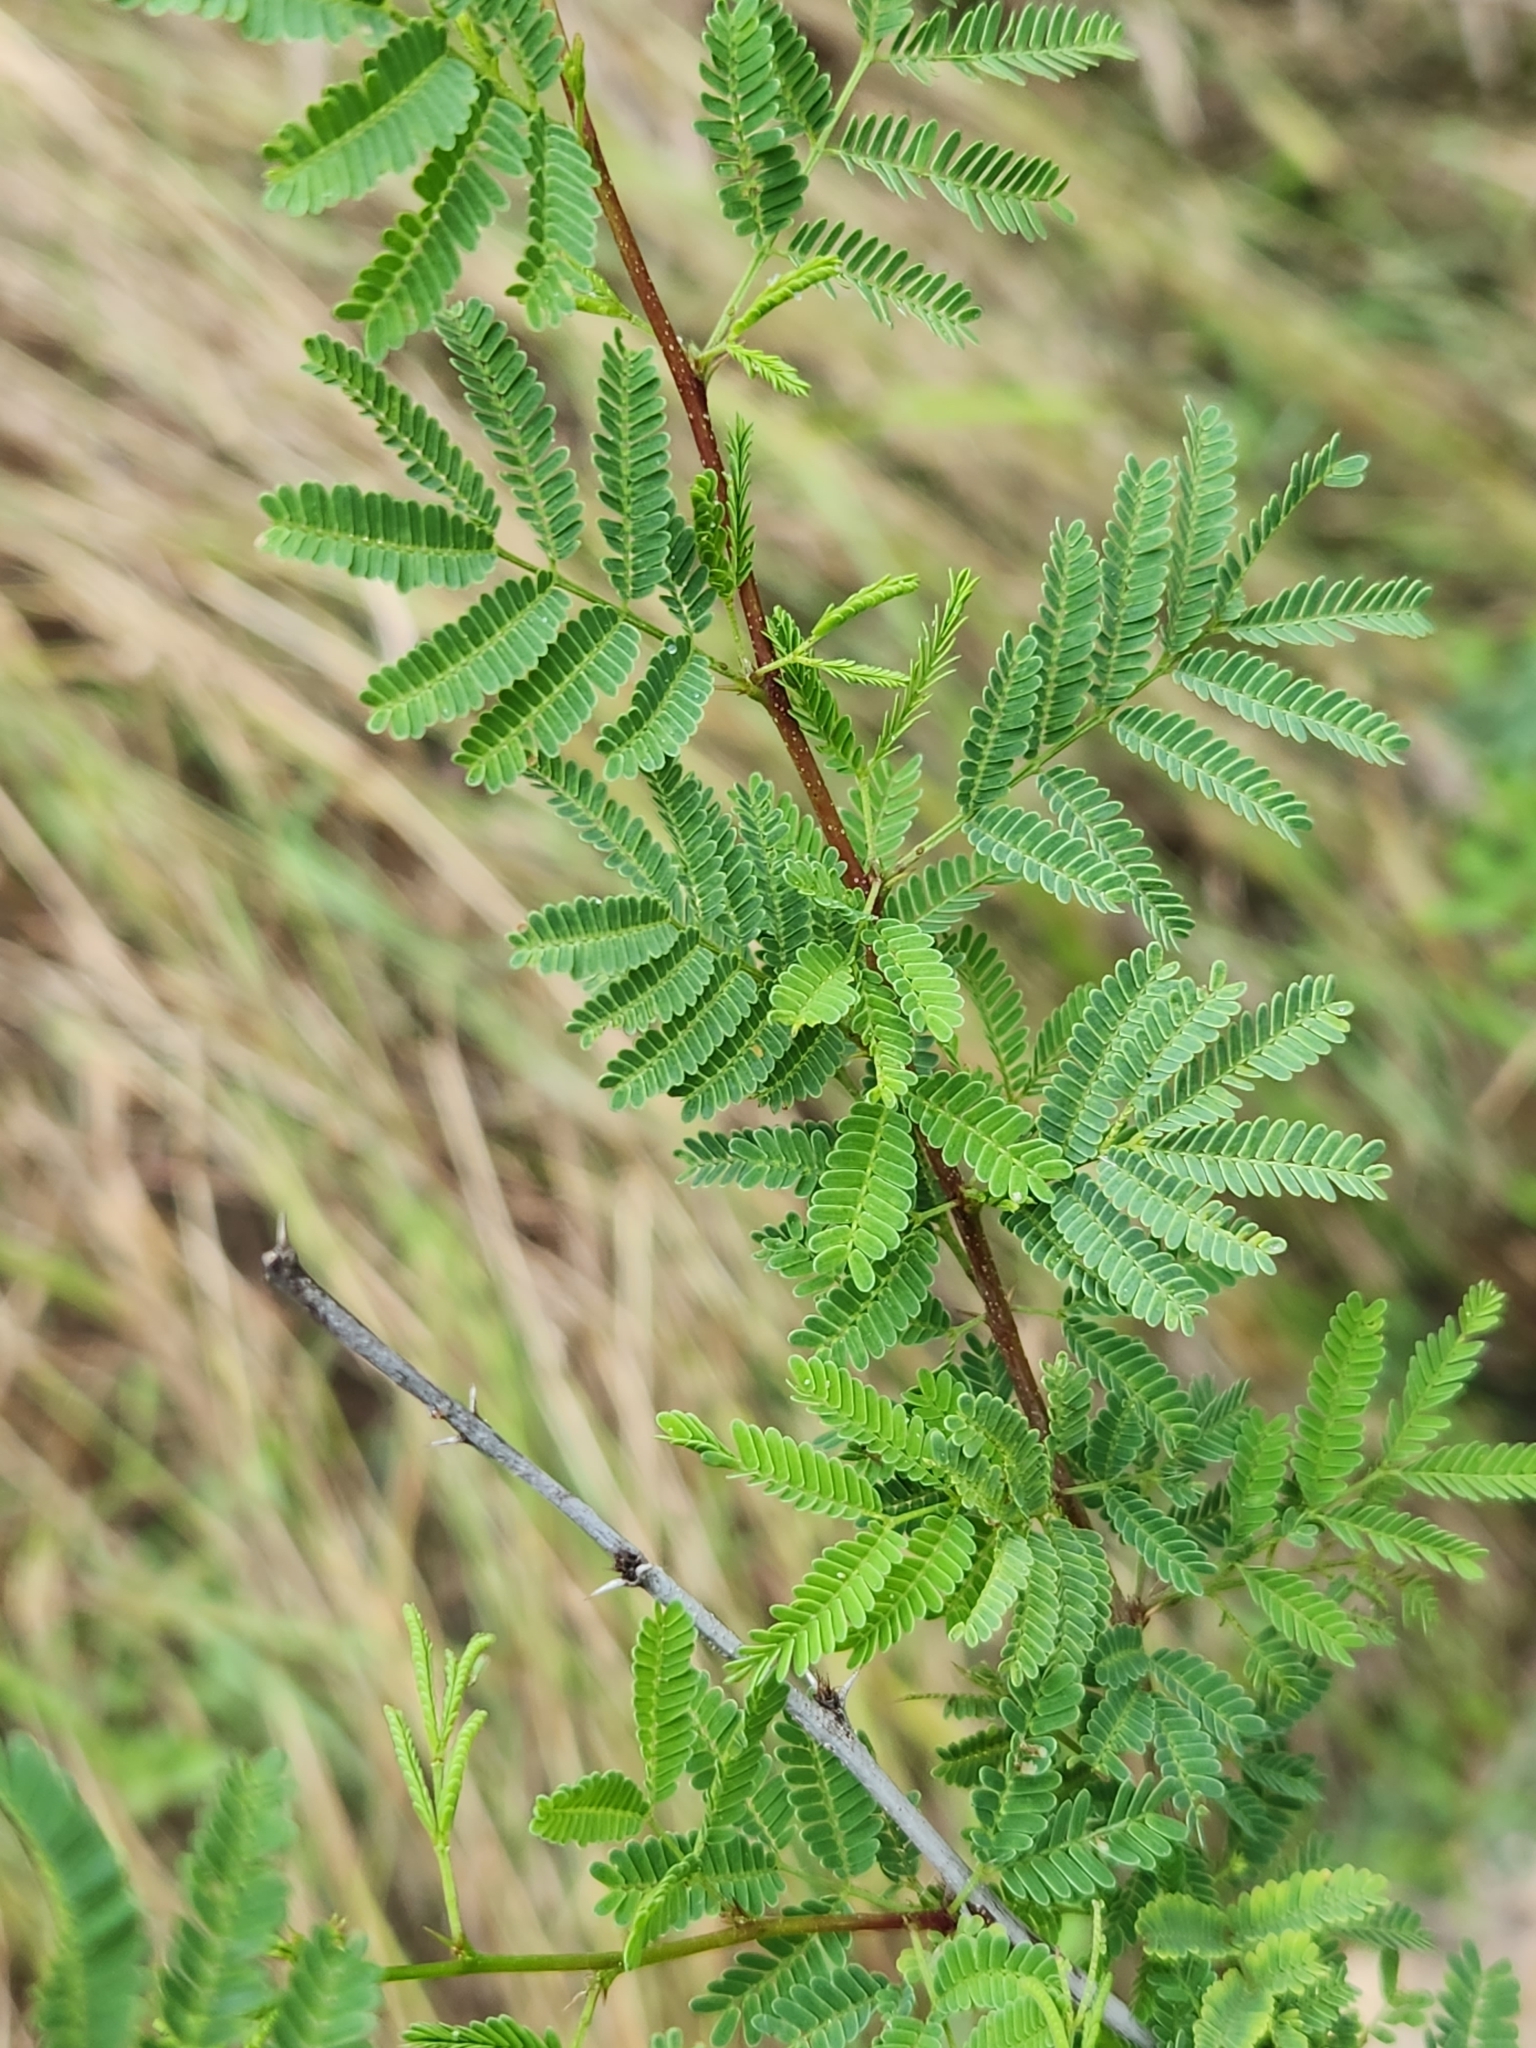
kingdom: Plantae
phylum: Tracheophyta
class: Magnoliopsida
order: Fabales
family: Fabaceae
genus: Vachellia
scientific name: Vachellia farnesiana
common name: Sweet acacia
